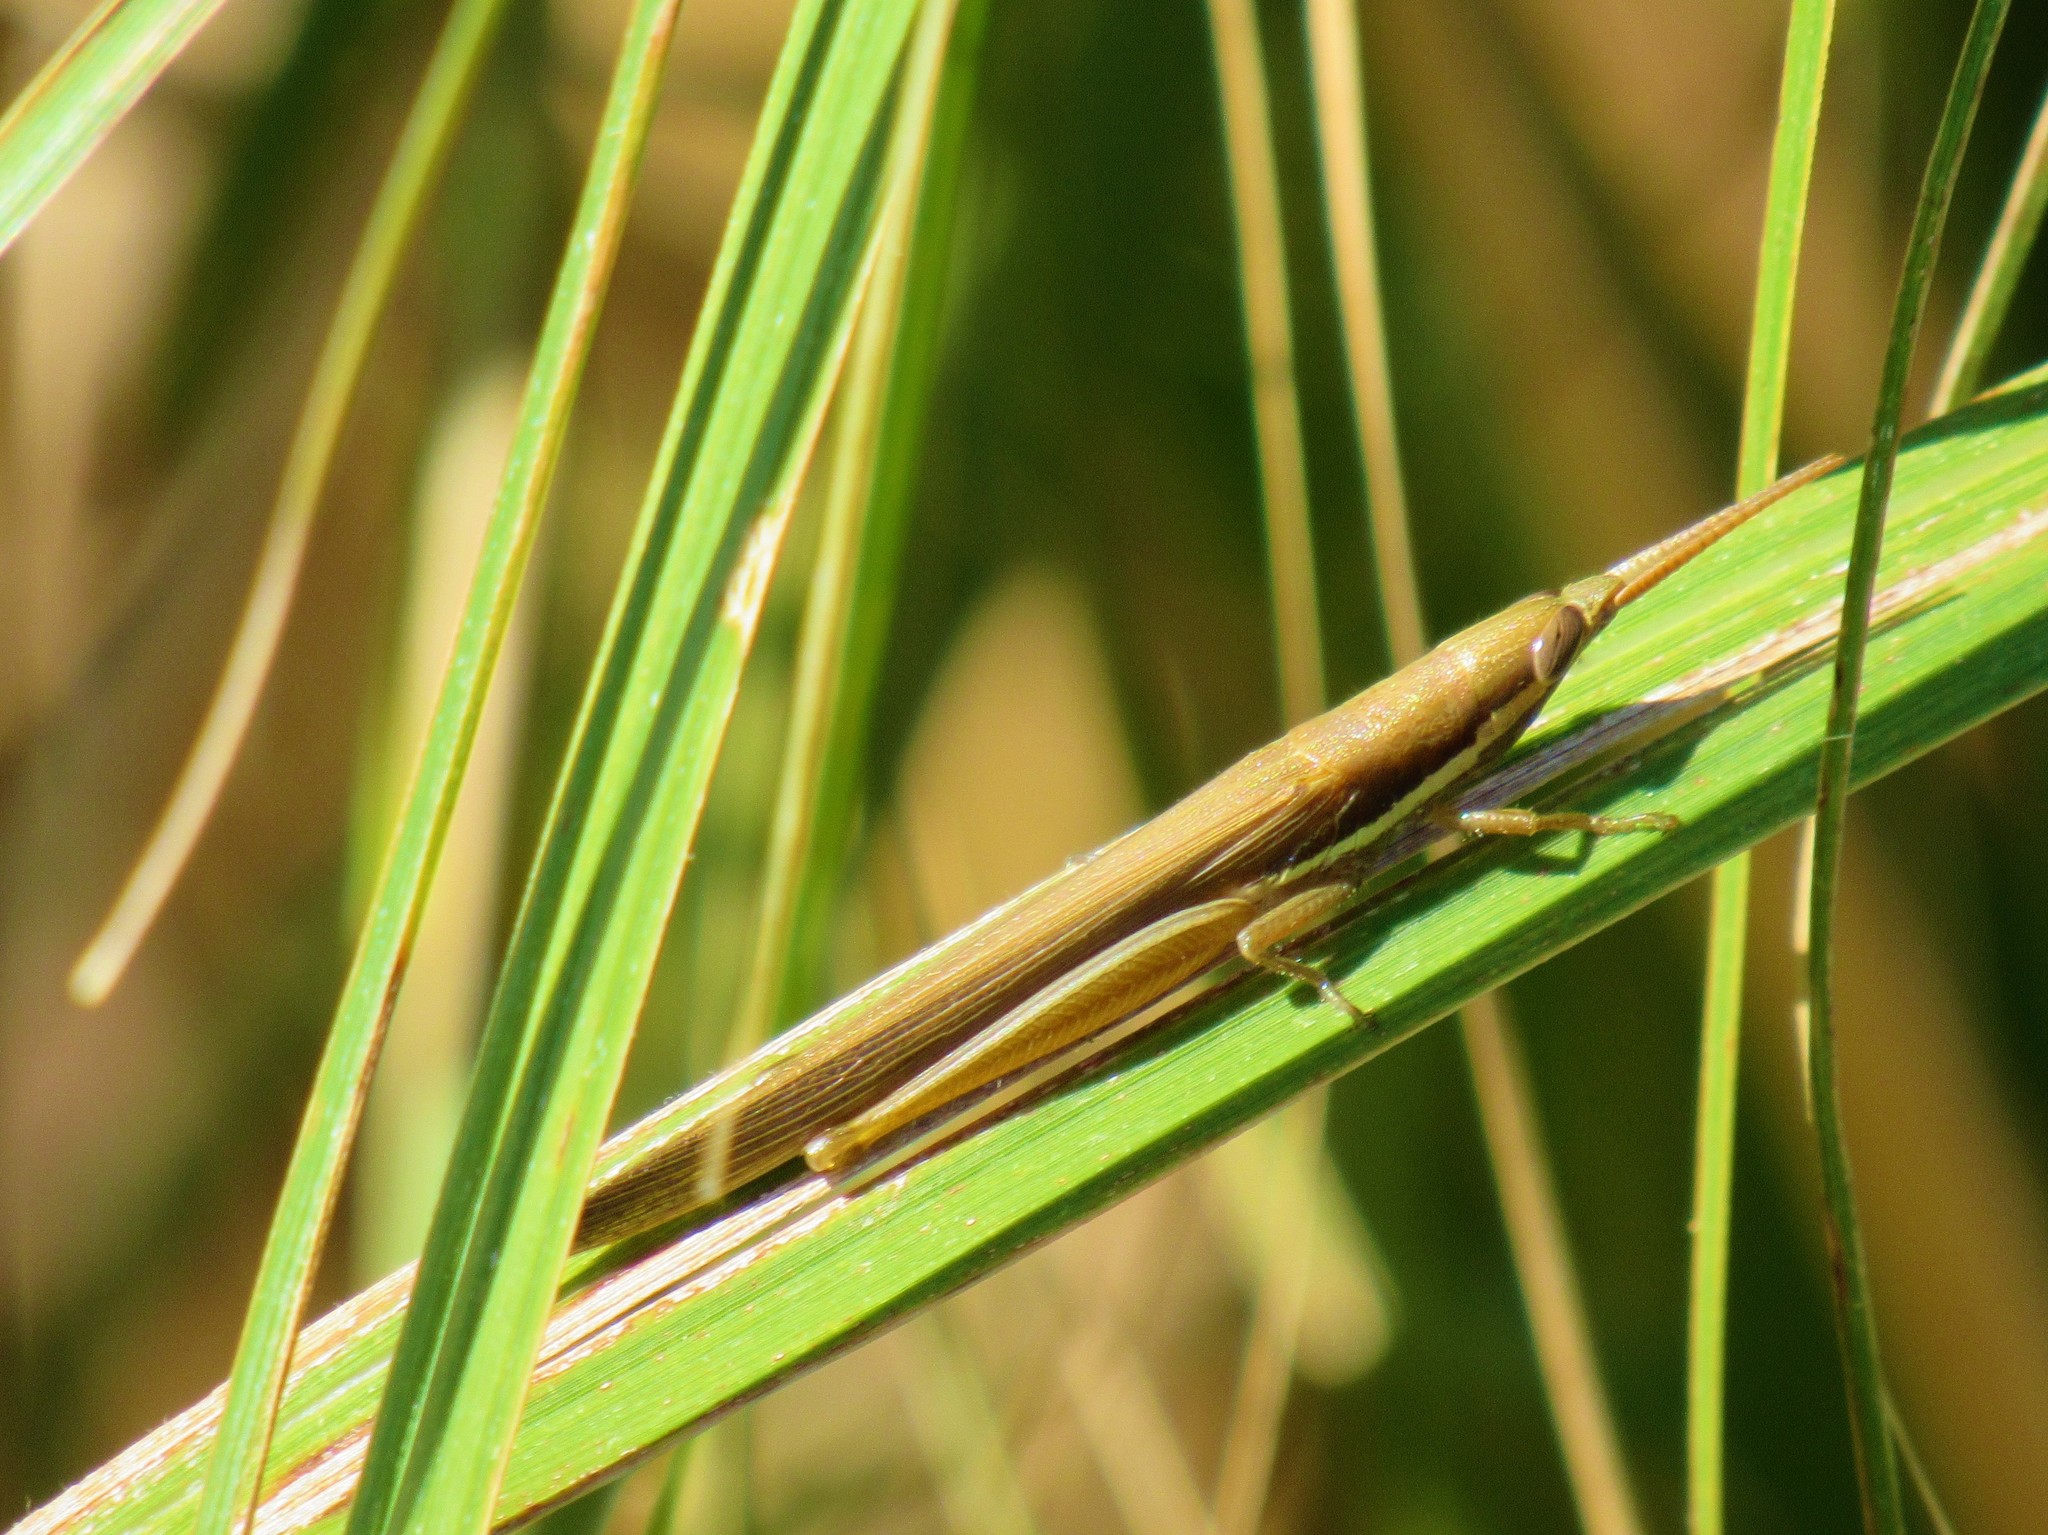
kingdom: Animalia
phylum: Arthropoda
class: Insecta
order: Orthoptera
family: Acrididae
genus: Leptysma
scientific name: Leptysma marginicollis
